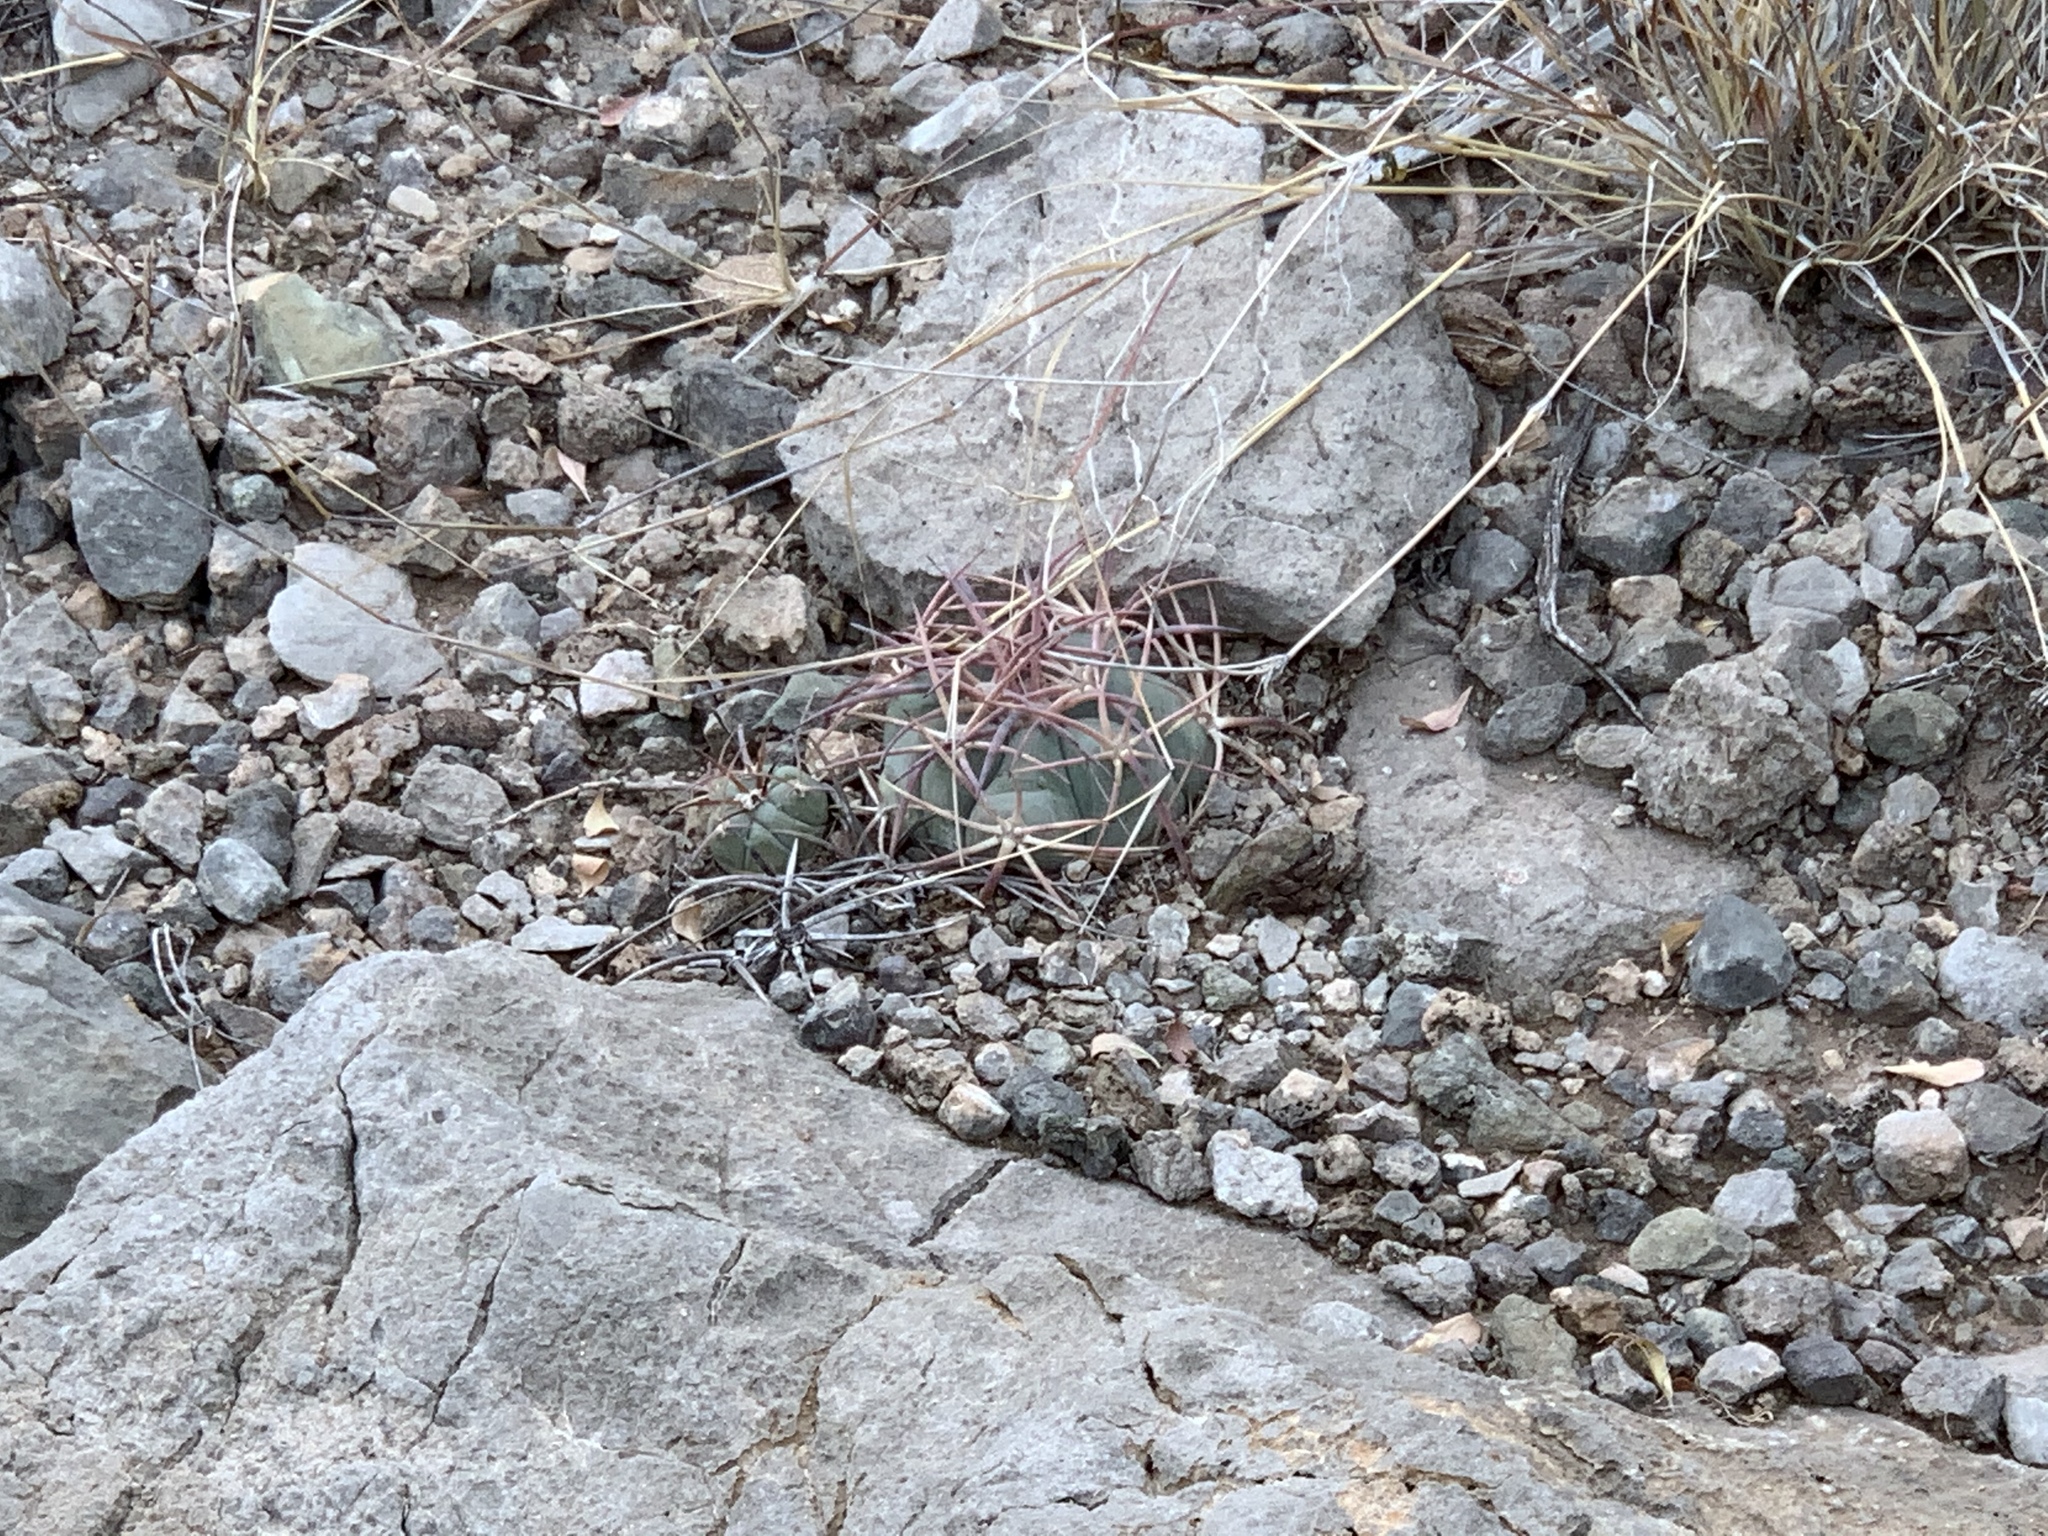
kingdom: Plantae
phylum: Tracheophyta
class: Magnoliopsida
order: Caryophyllales
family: Cactaceae
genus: Echinocactus
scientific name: Echinocactus horizonthalonius
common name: Devilshead
